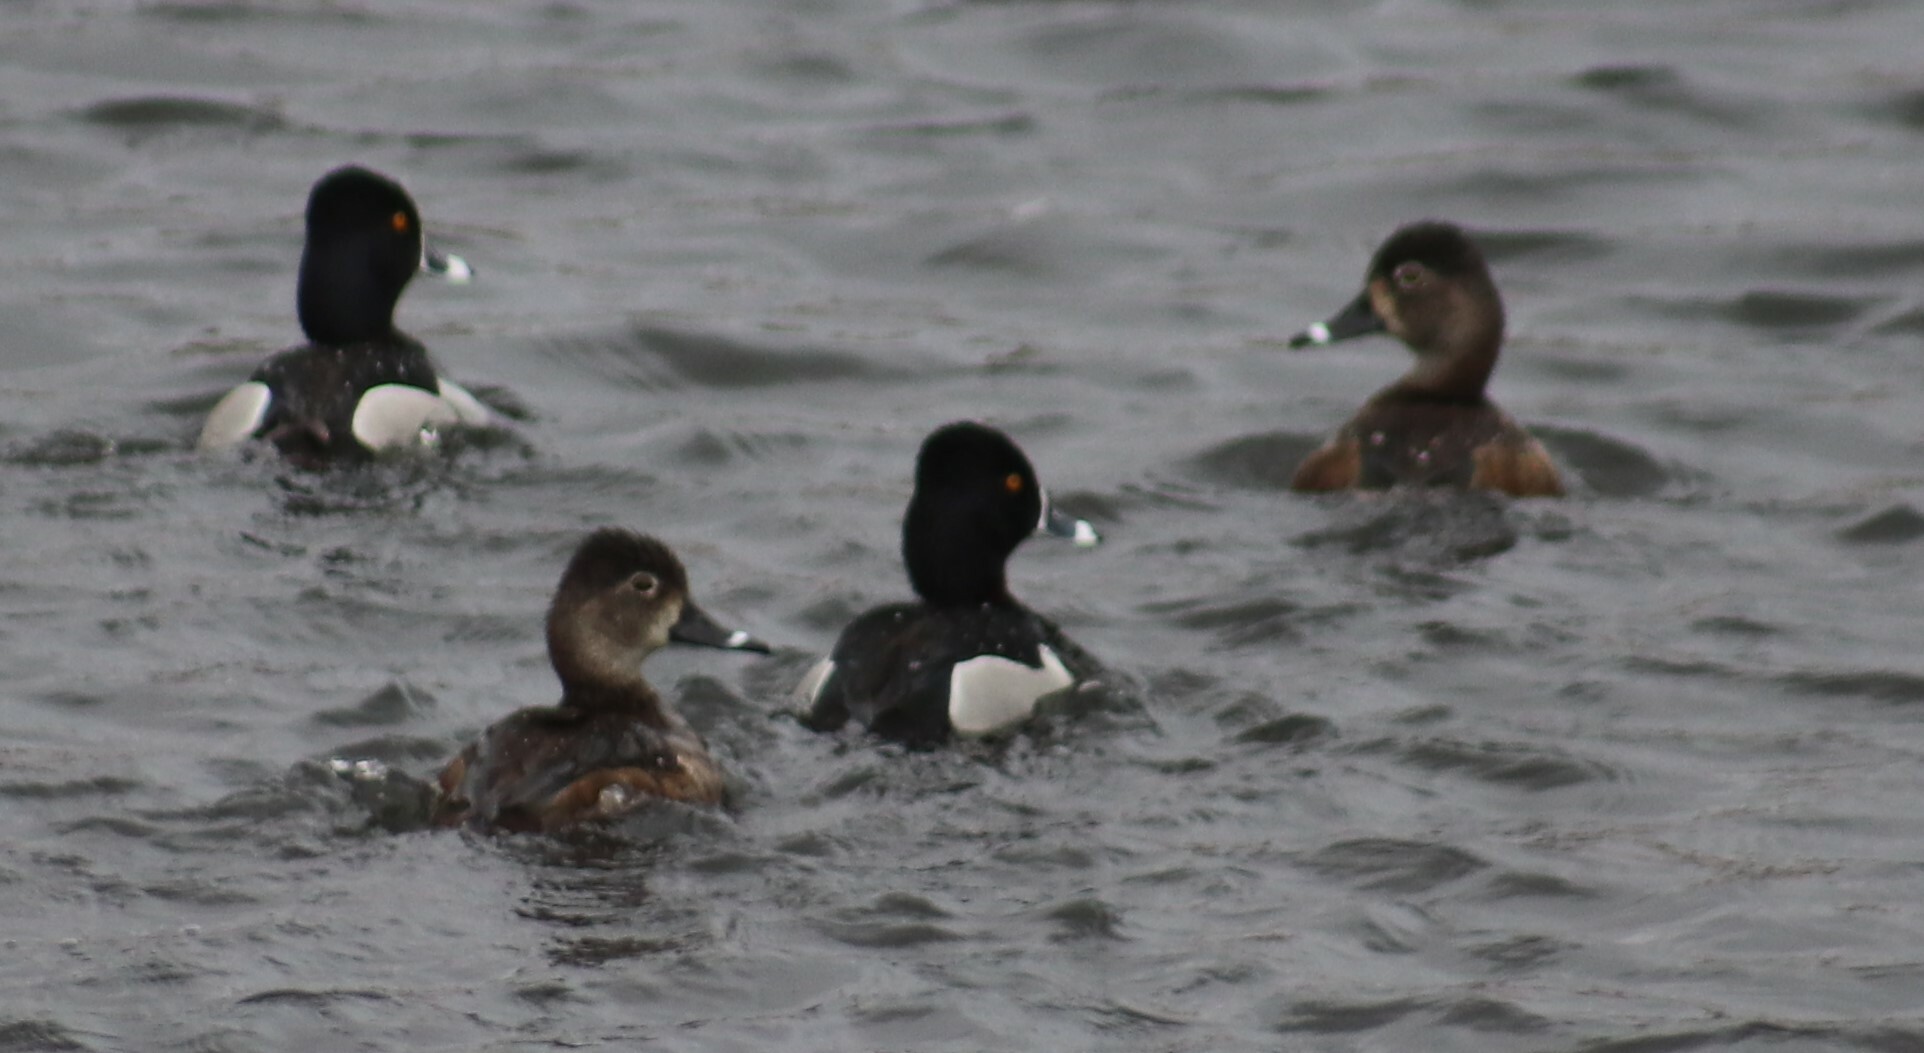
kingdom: Animalia
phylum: Chordata
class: Aves
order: Anseriformes
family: Anatidae
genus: Aythya
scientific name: Aythya collaris
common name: Ring-necked duck
